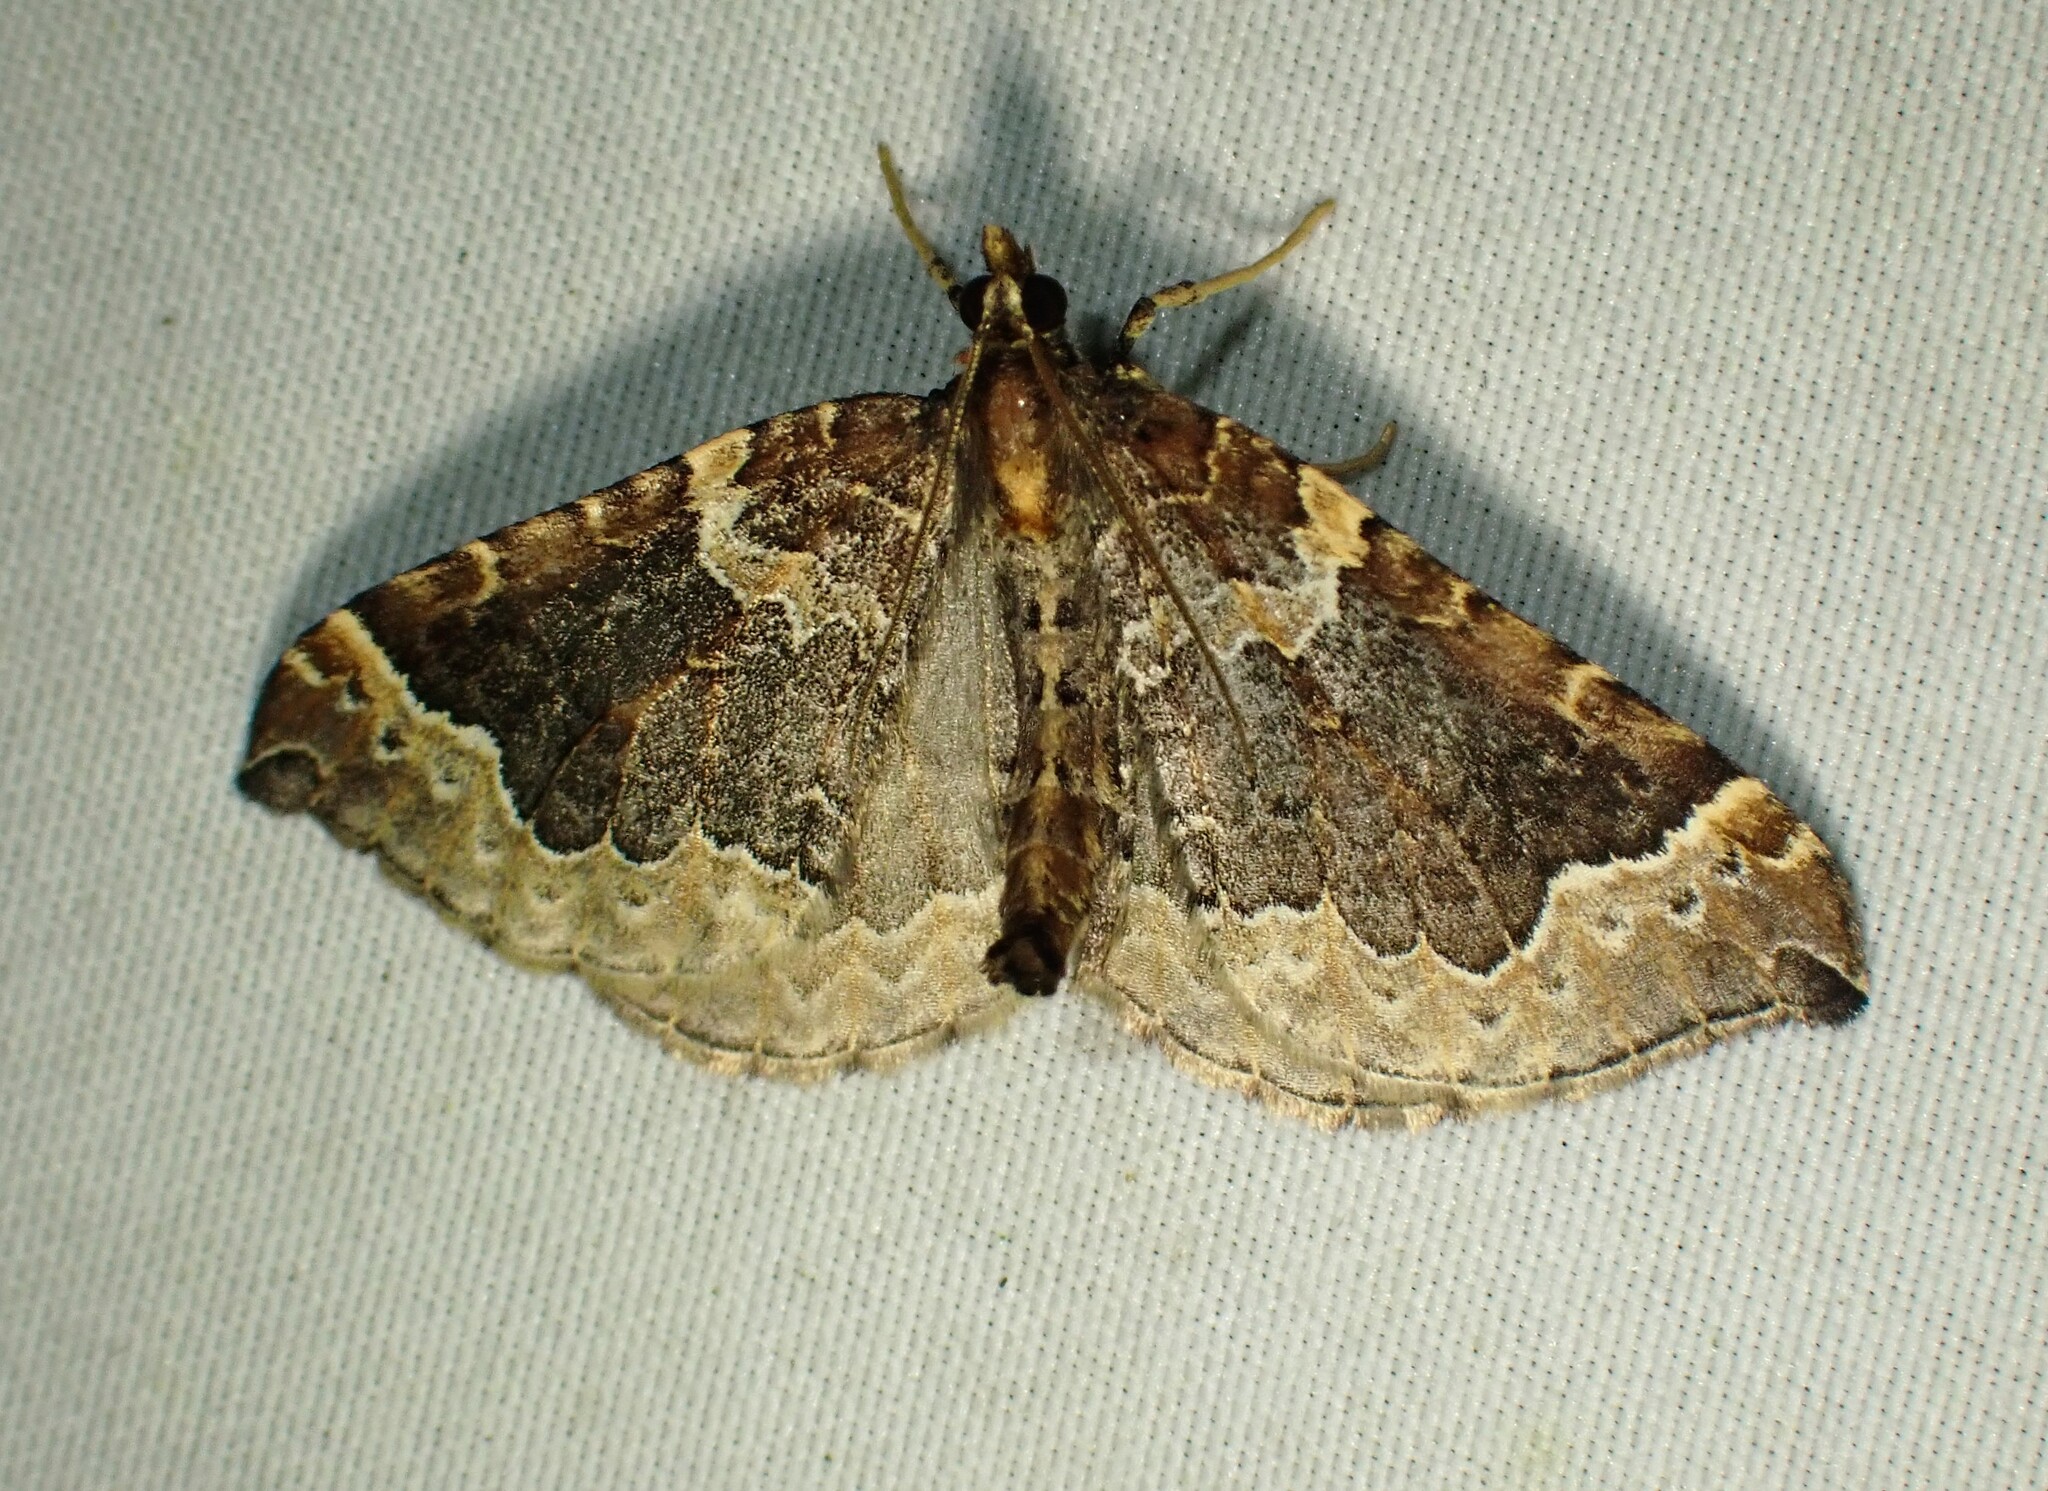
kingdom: Animalia
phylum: Arthropoda
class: Insecta
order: Lepidoptera
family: Geometridae
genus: Eulithis
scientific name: Eulithis flavibrunneata
